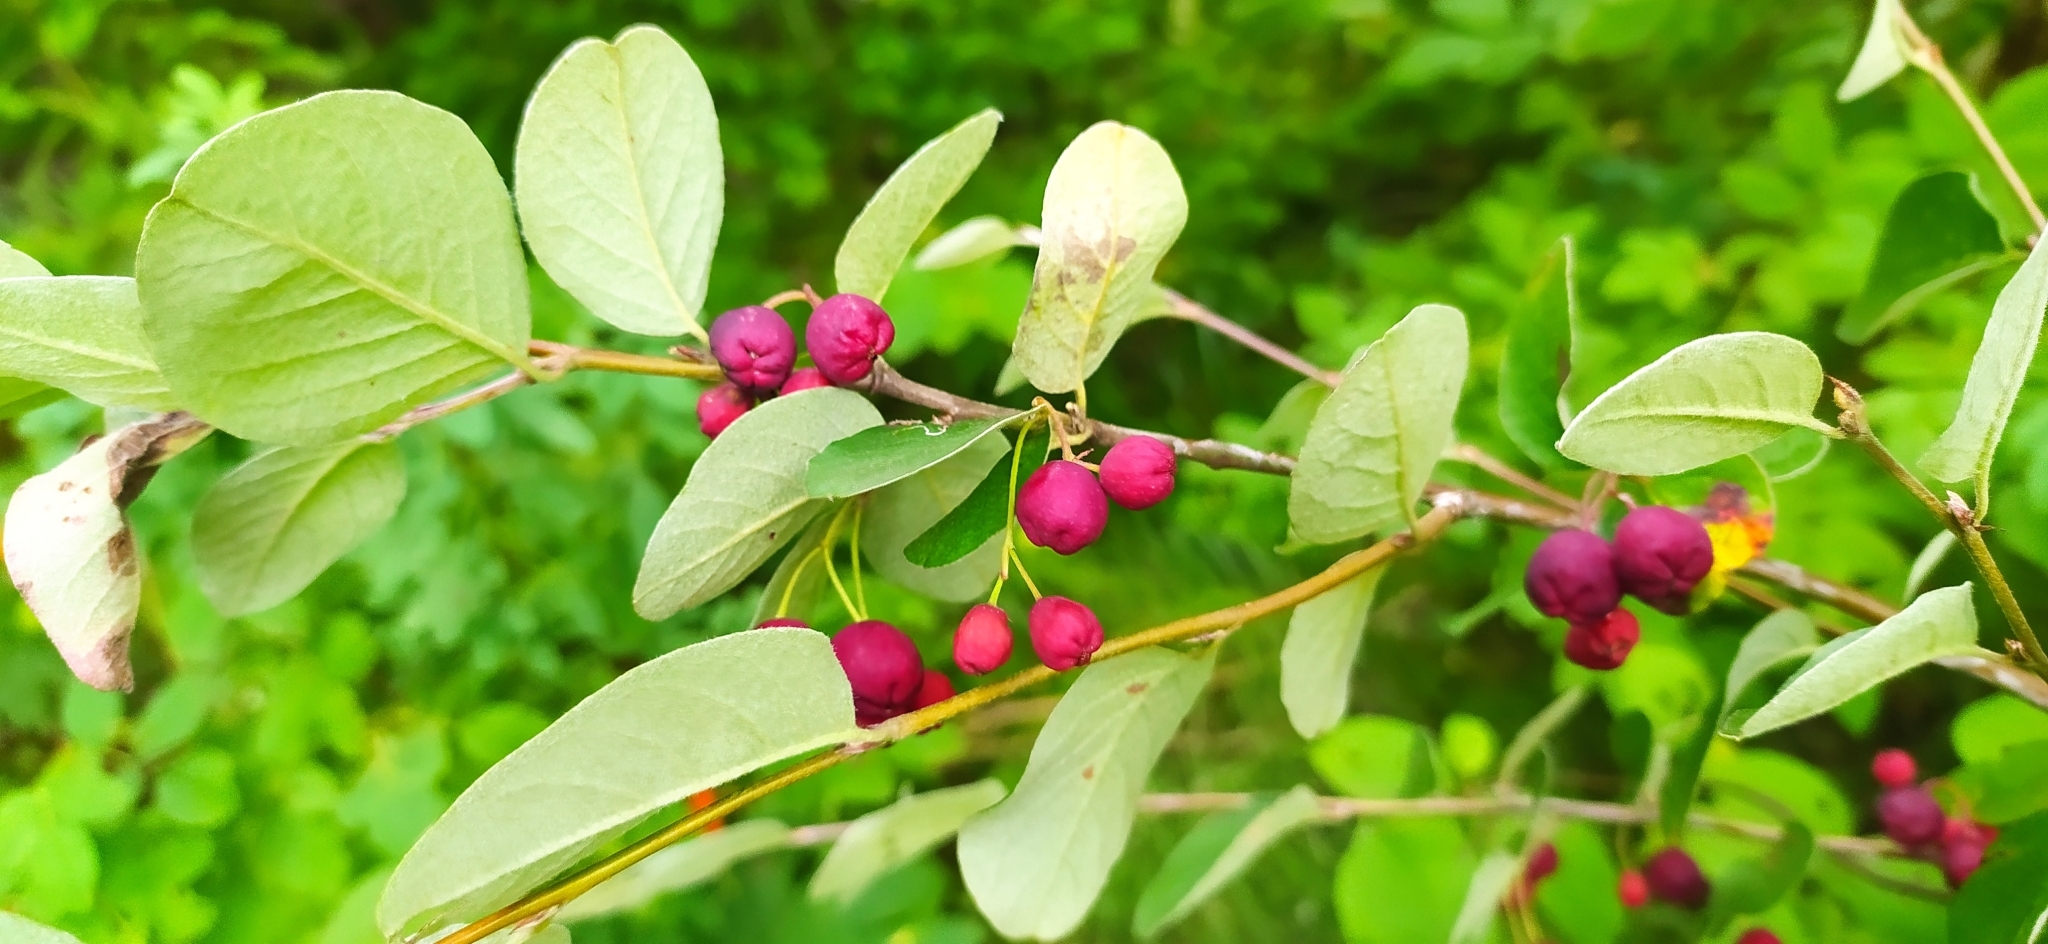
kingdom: Plantae
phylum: Tracheophyta
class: Magnoliopsida
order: Rosales
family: Rosaceae
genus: Cotoneaster
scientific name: Cotoneaster melanocarpus
